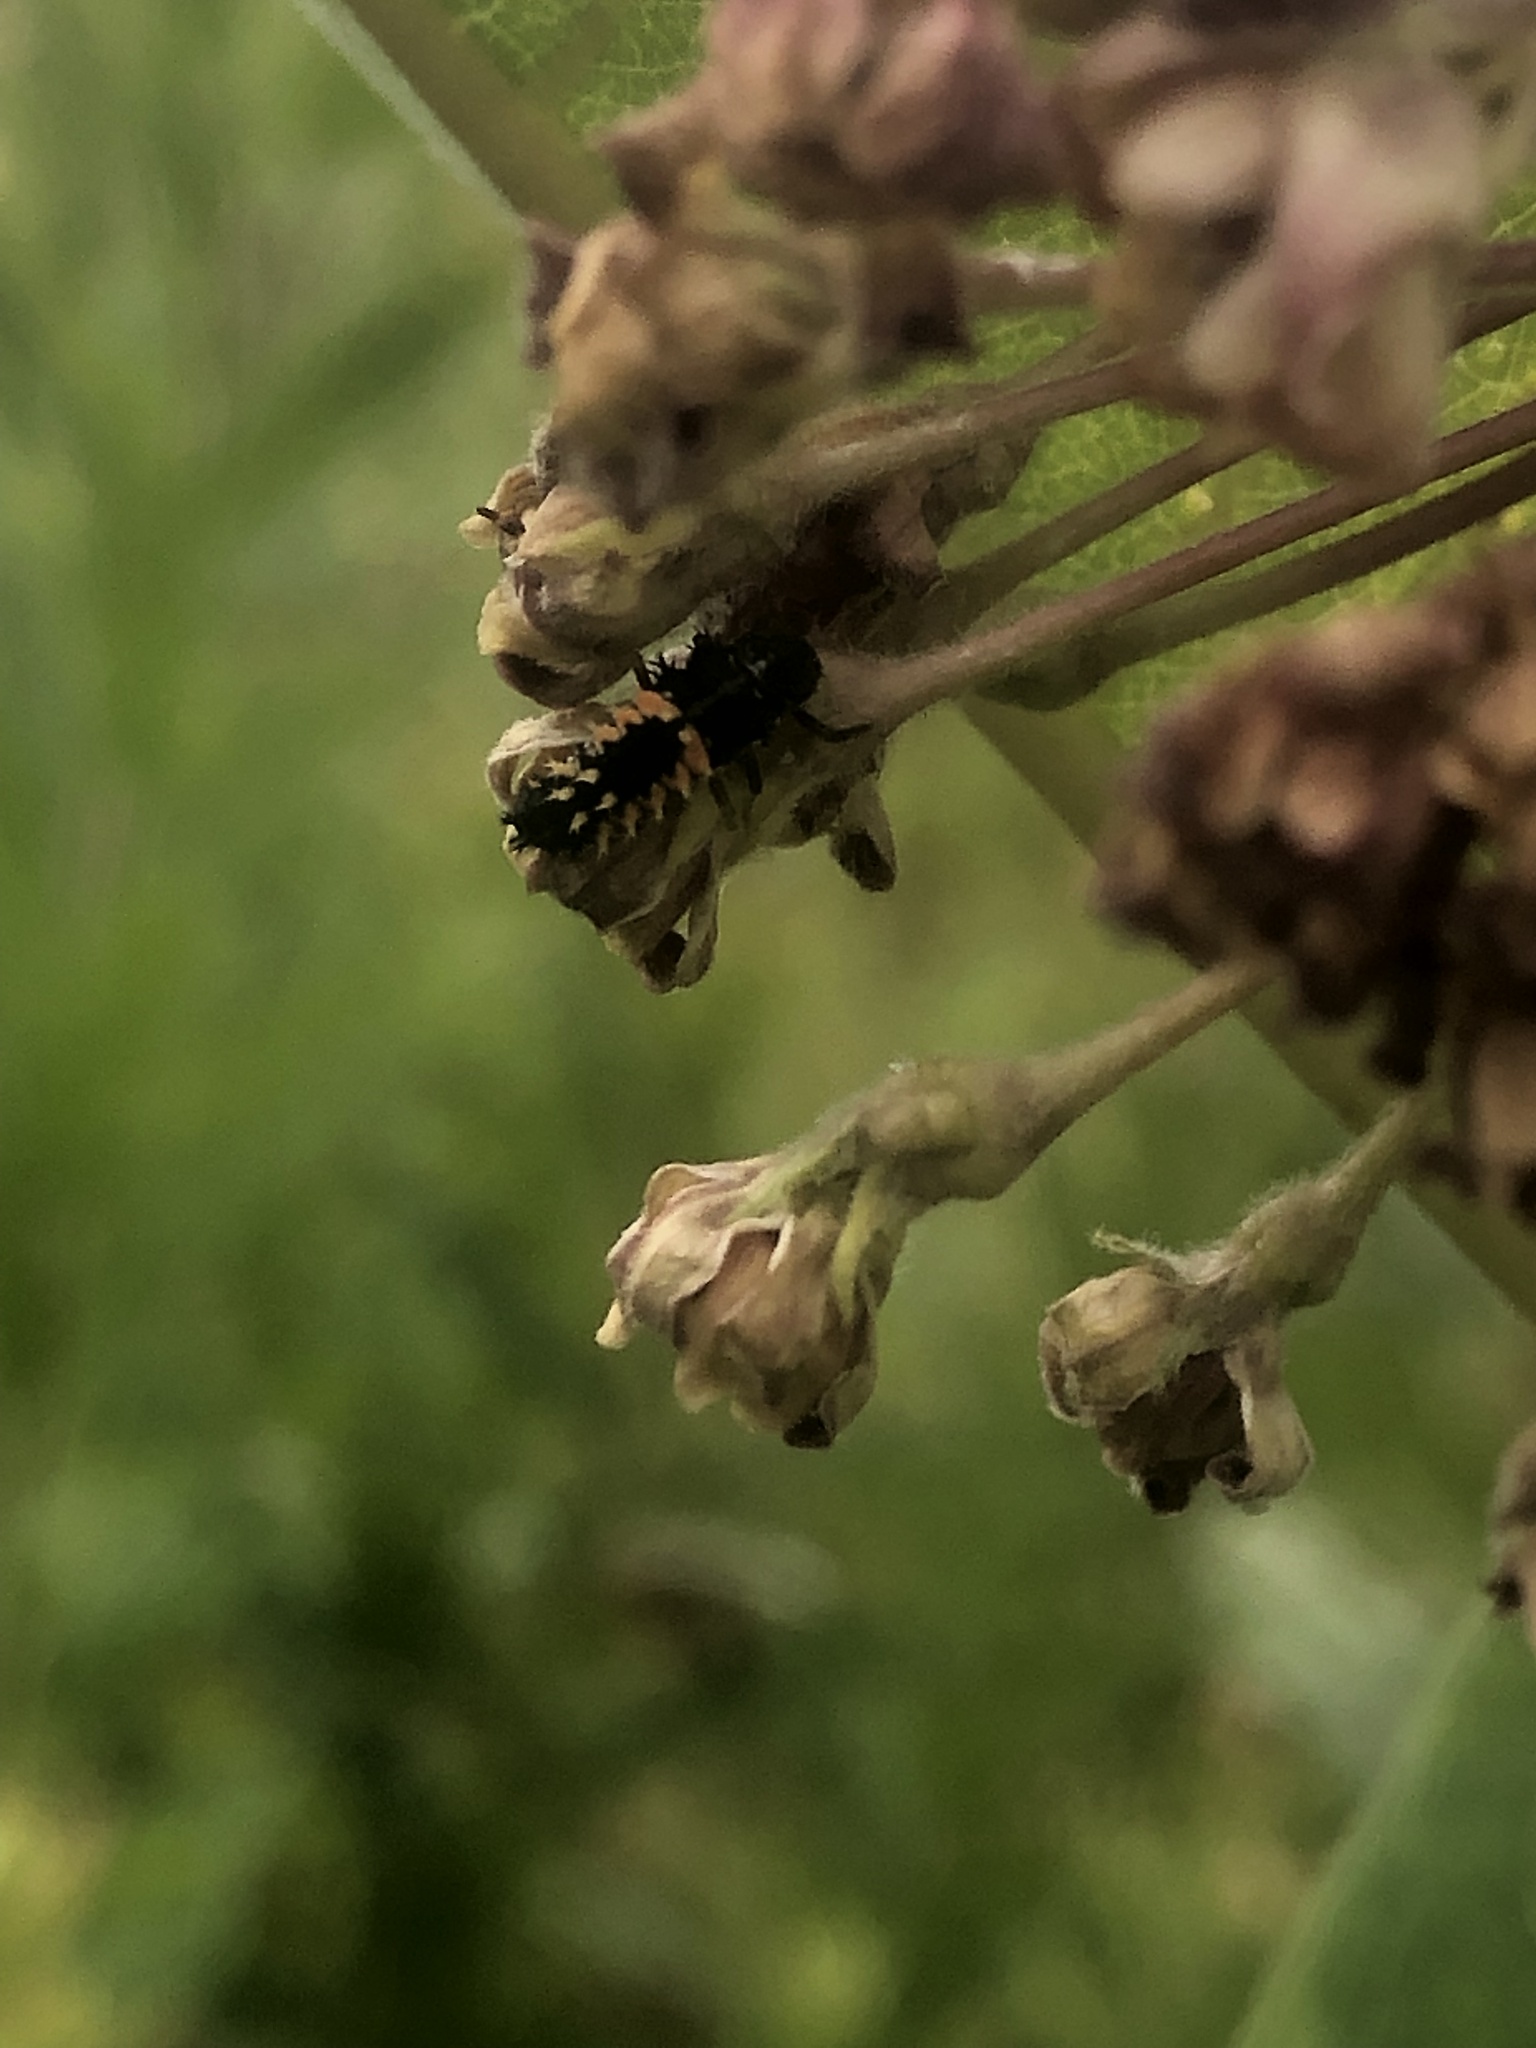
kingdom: Animalia
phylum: Arthropoda
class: Insecta
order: Coleoptera
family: Coccinellidae
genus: Harmonia
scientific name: Harmonia axyridis
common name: Harlequin ladybird
